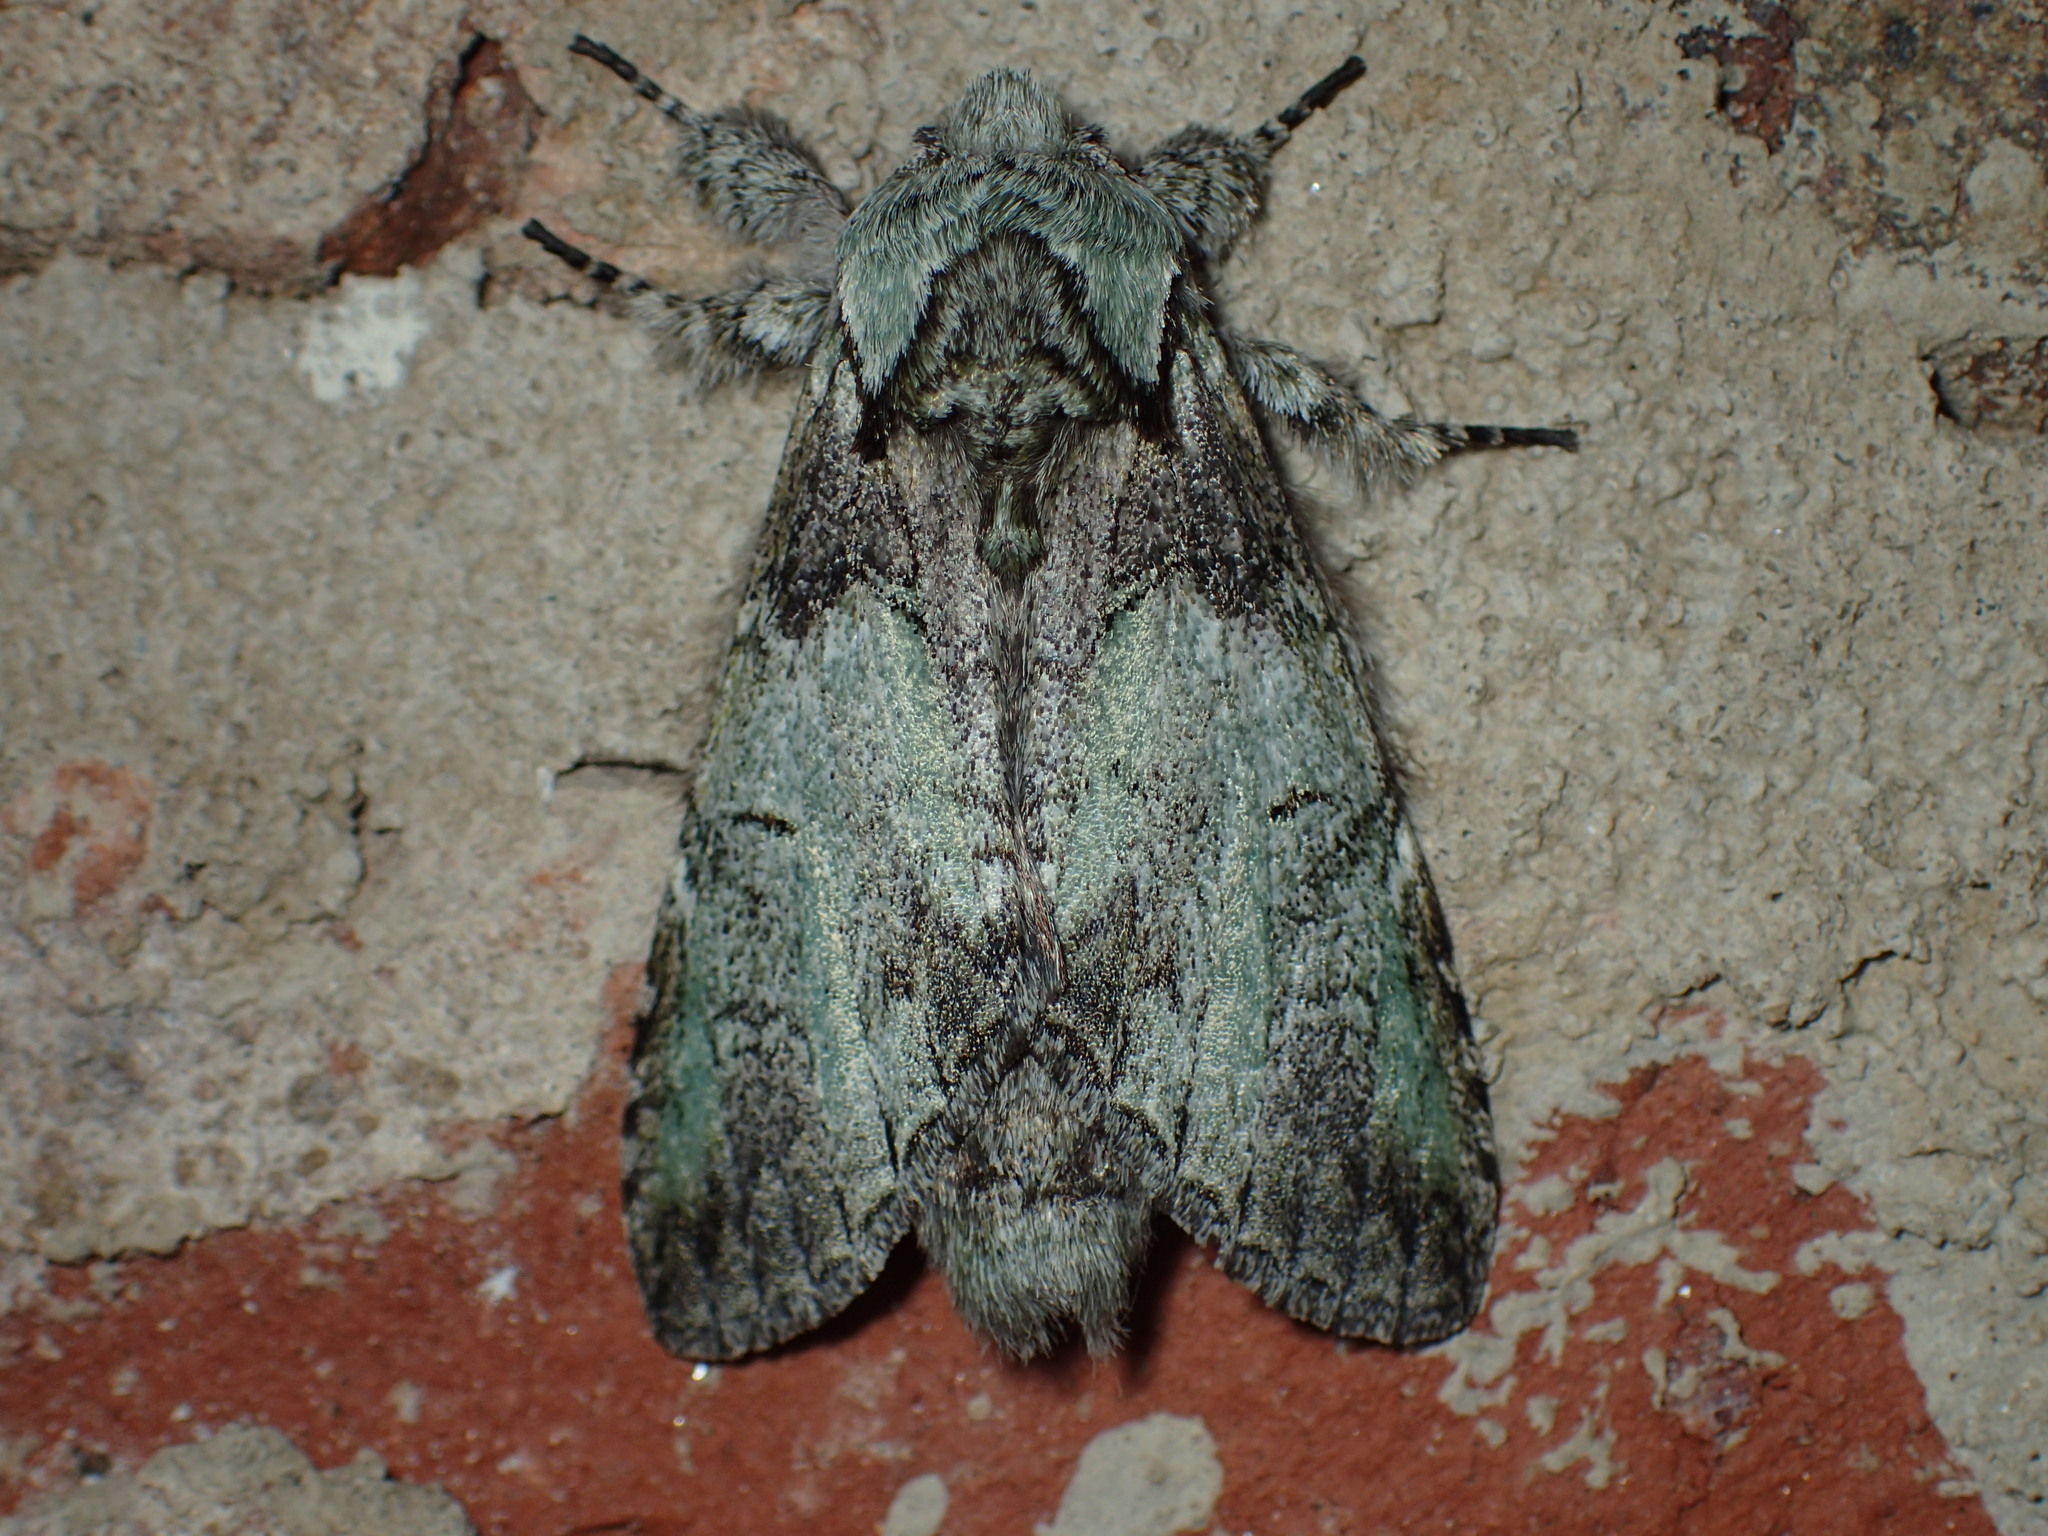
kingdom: Animalia
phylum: Arthropoda
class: Insecta
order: Lepidoptera
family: Notodontidae
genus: Macrurocampa
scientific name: Macrurocampa marthesia
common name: Mottled prominent
